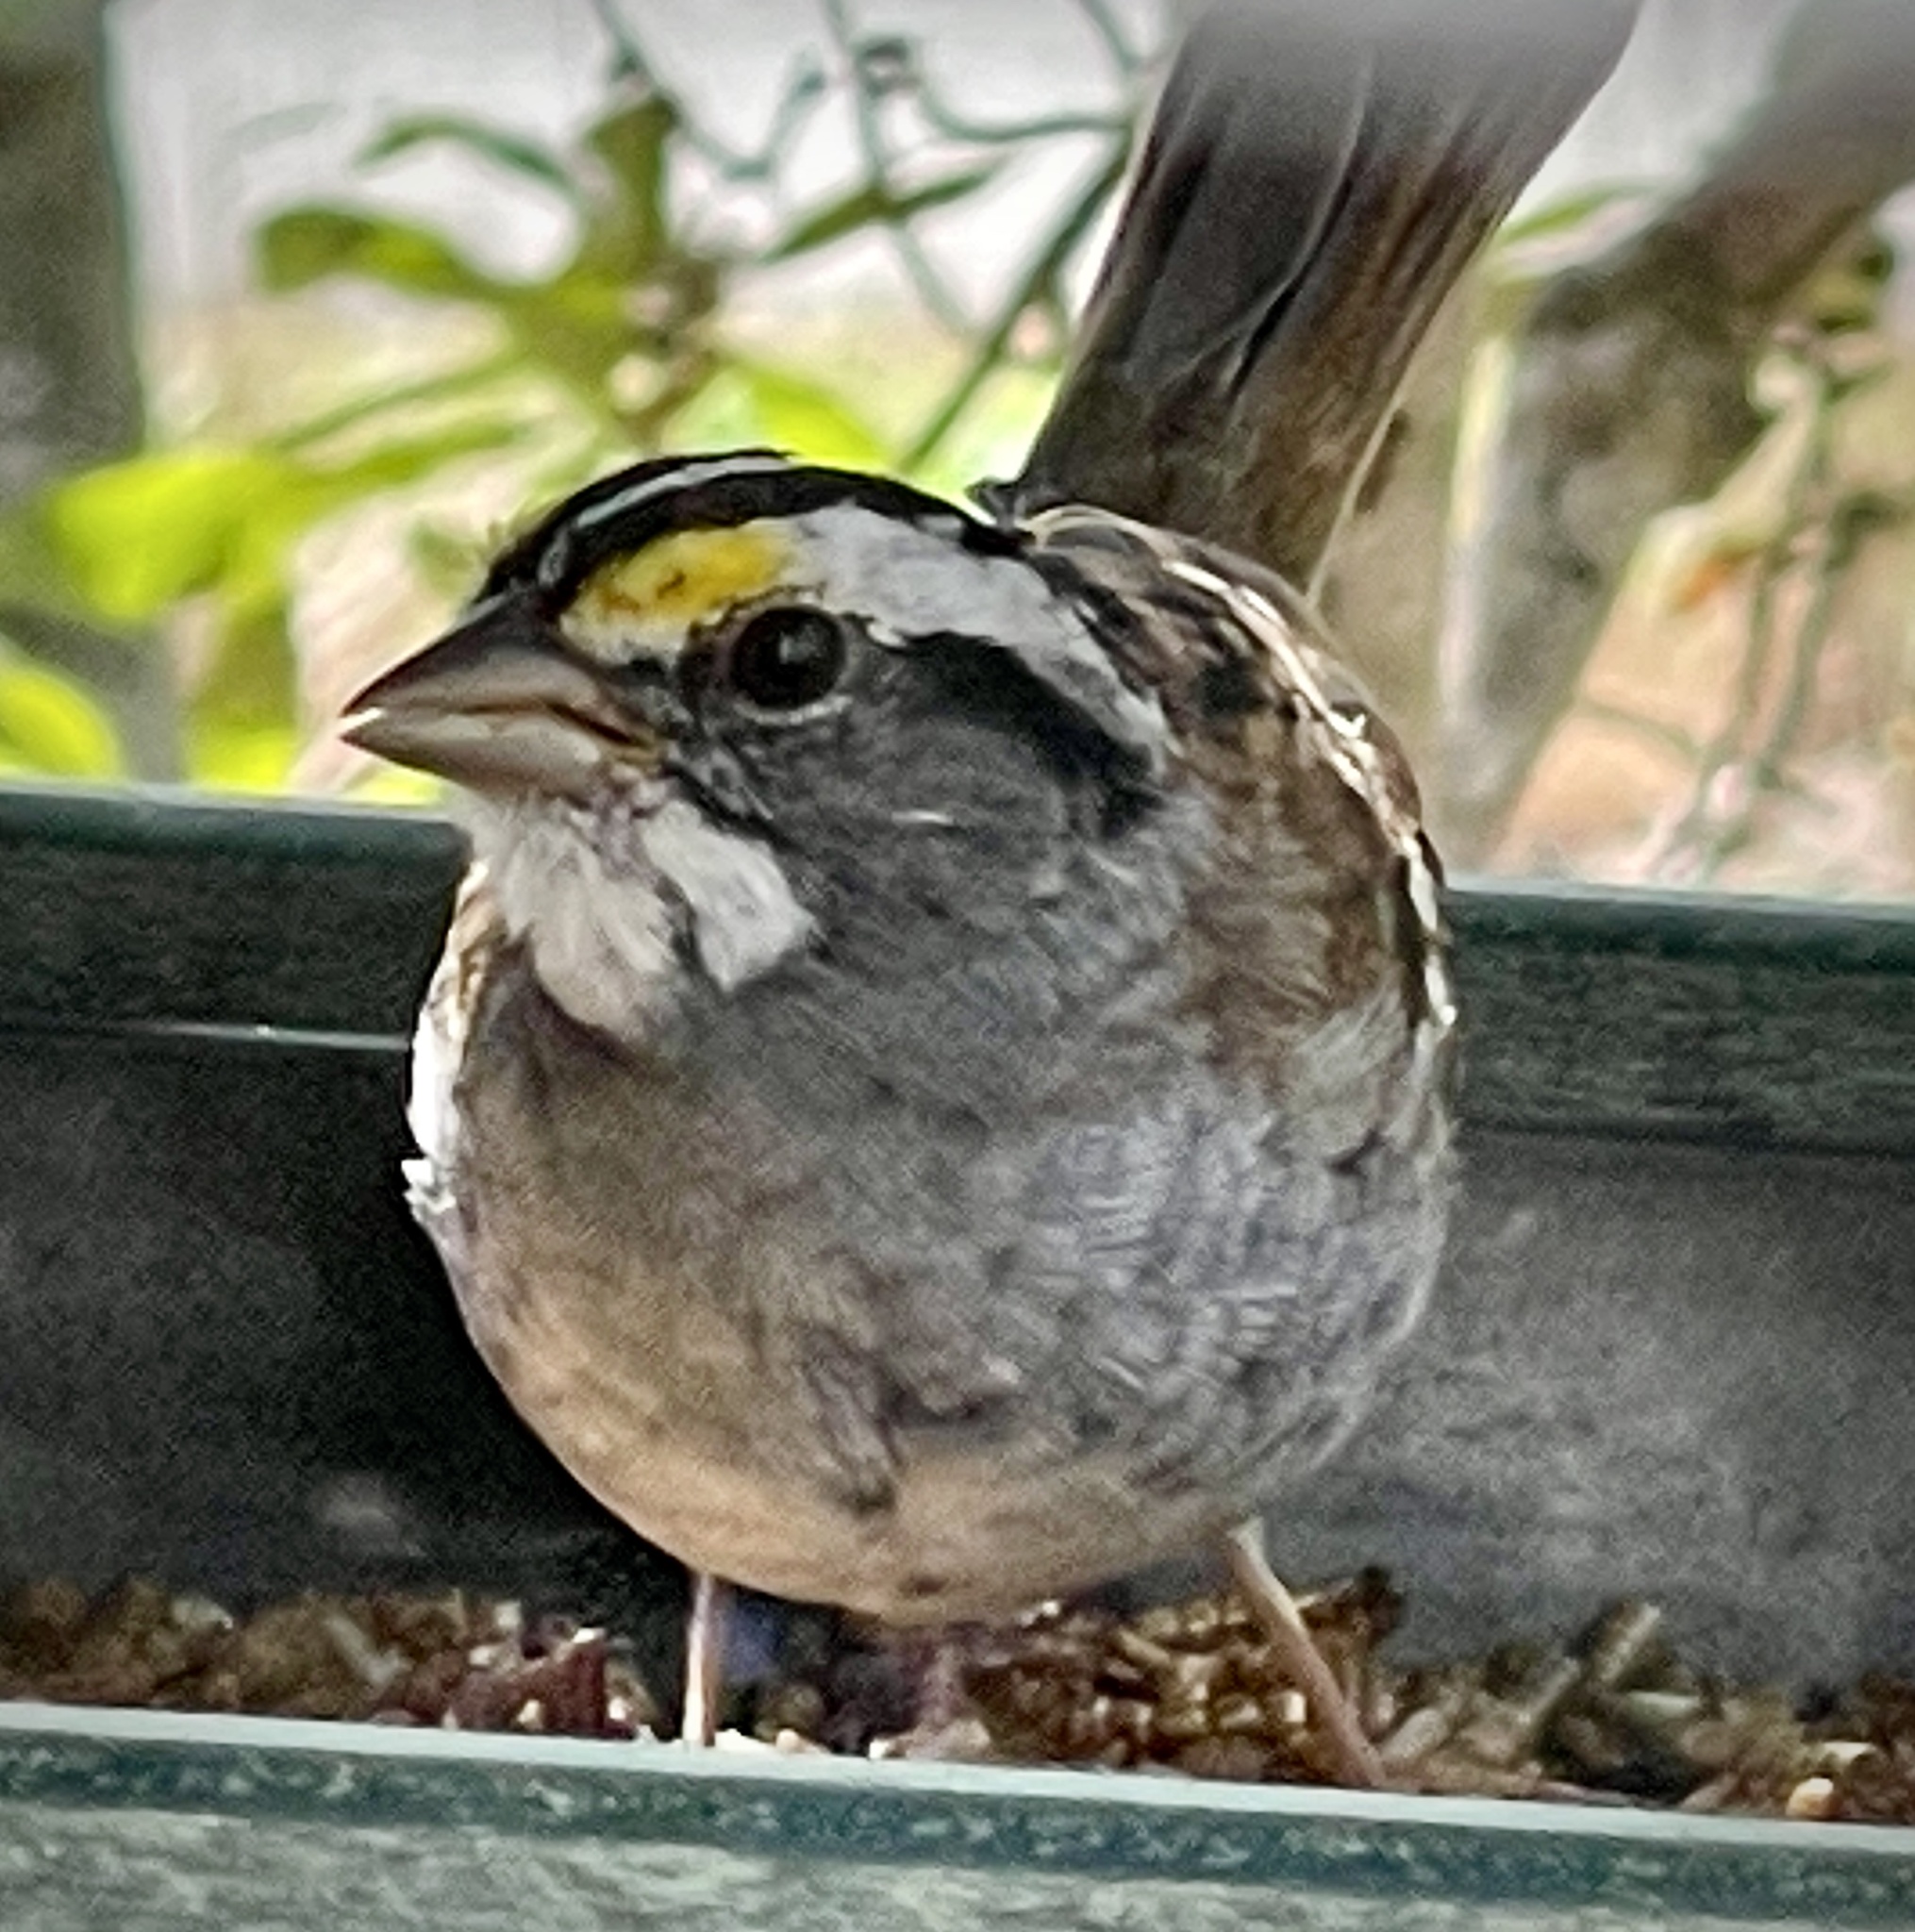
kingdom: Animalia
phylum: Chordata
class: Aves
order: Passeriformes
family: Passerellidae
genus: Zonotrichia
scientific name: Zonotrichia albicollis
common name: White-throated sparrow
